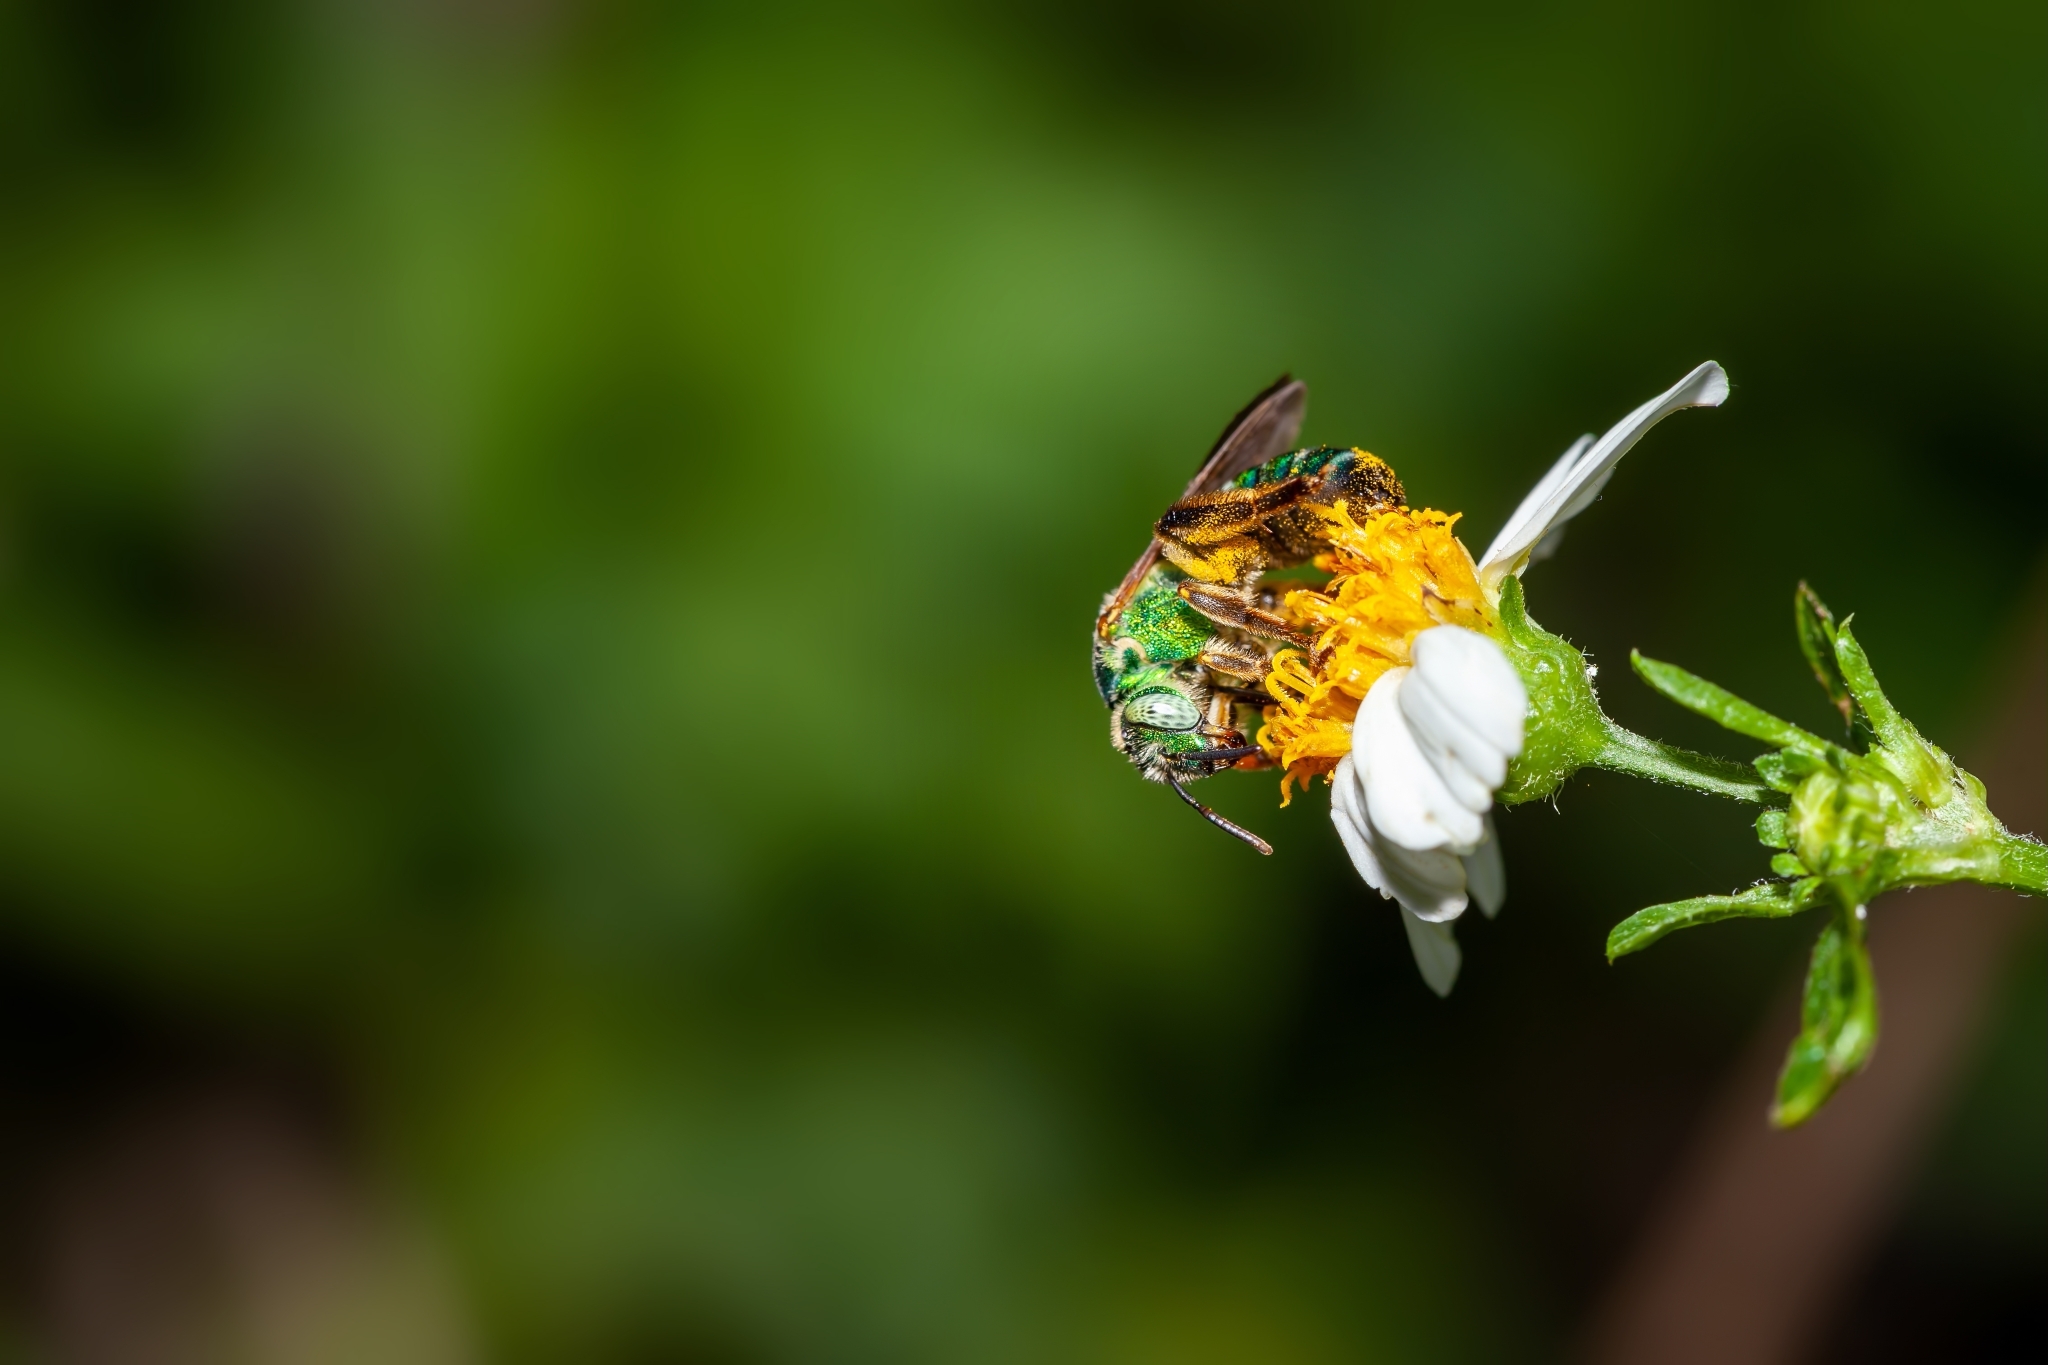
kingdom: Animalia
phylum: Arthropoda
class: Insecta
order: Hymenoptera
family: Halictidae
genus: Agapostemon
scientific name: Agapostemon splendens
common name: Brown-winged striped sweat bee
